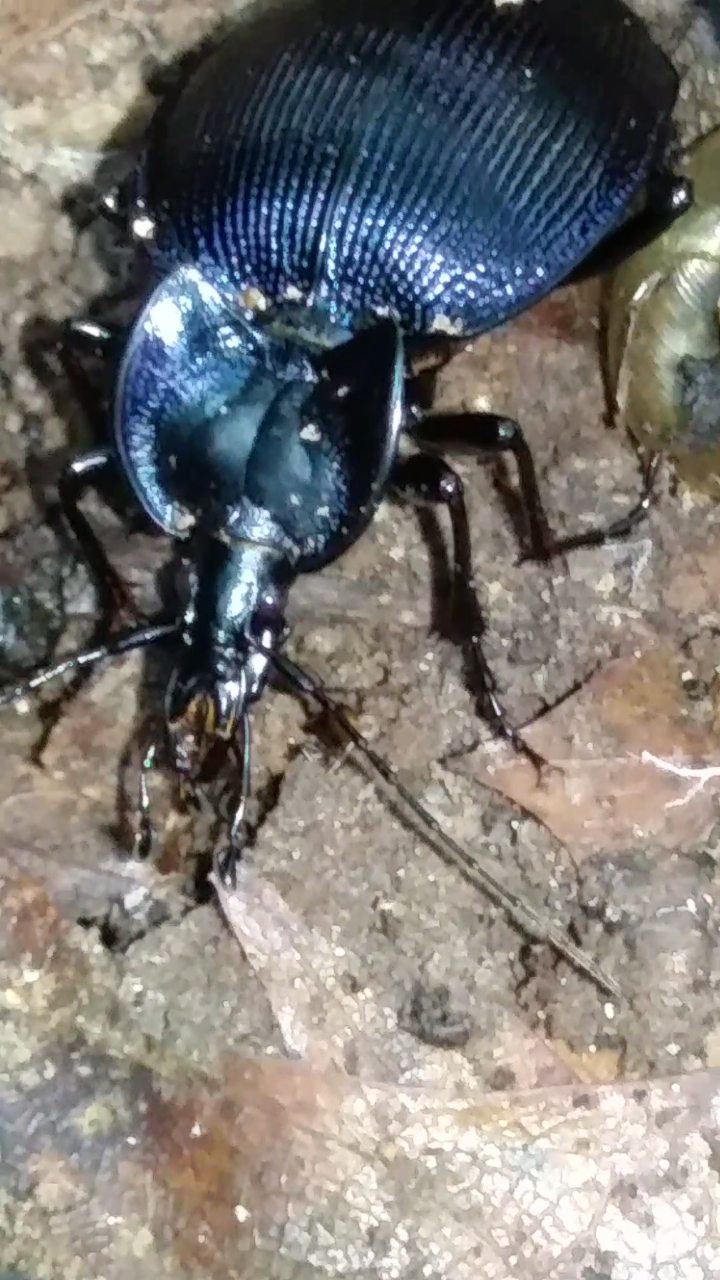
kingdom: Animalia
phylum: Arthropoda
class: Insecta
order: Coleoptera
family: Carabidae
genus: Scaphinotus
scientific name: Scaphinotus unicolor
